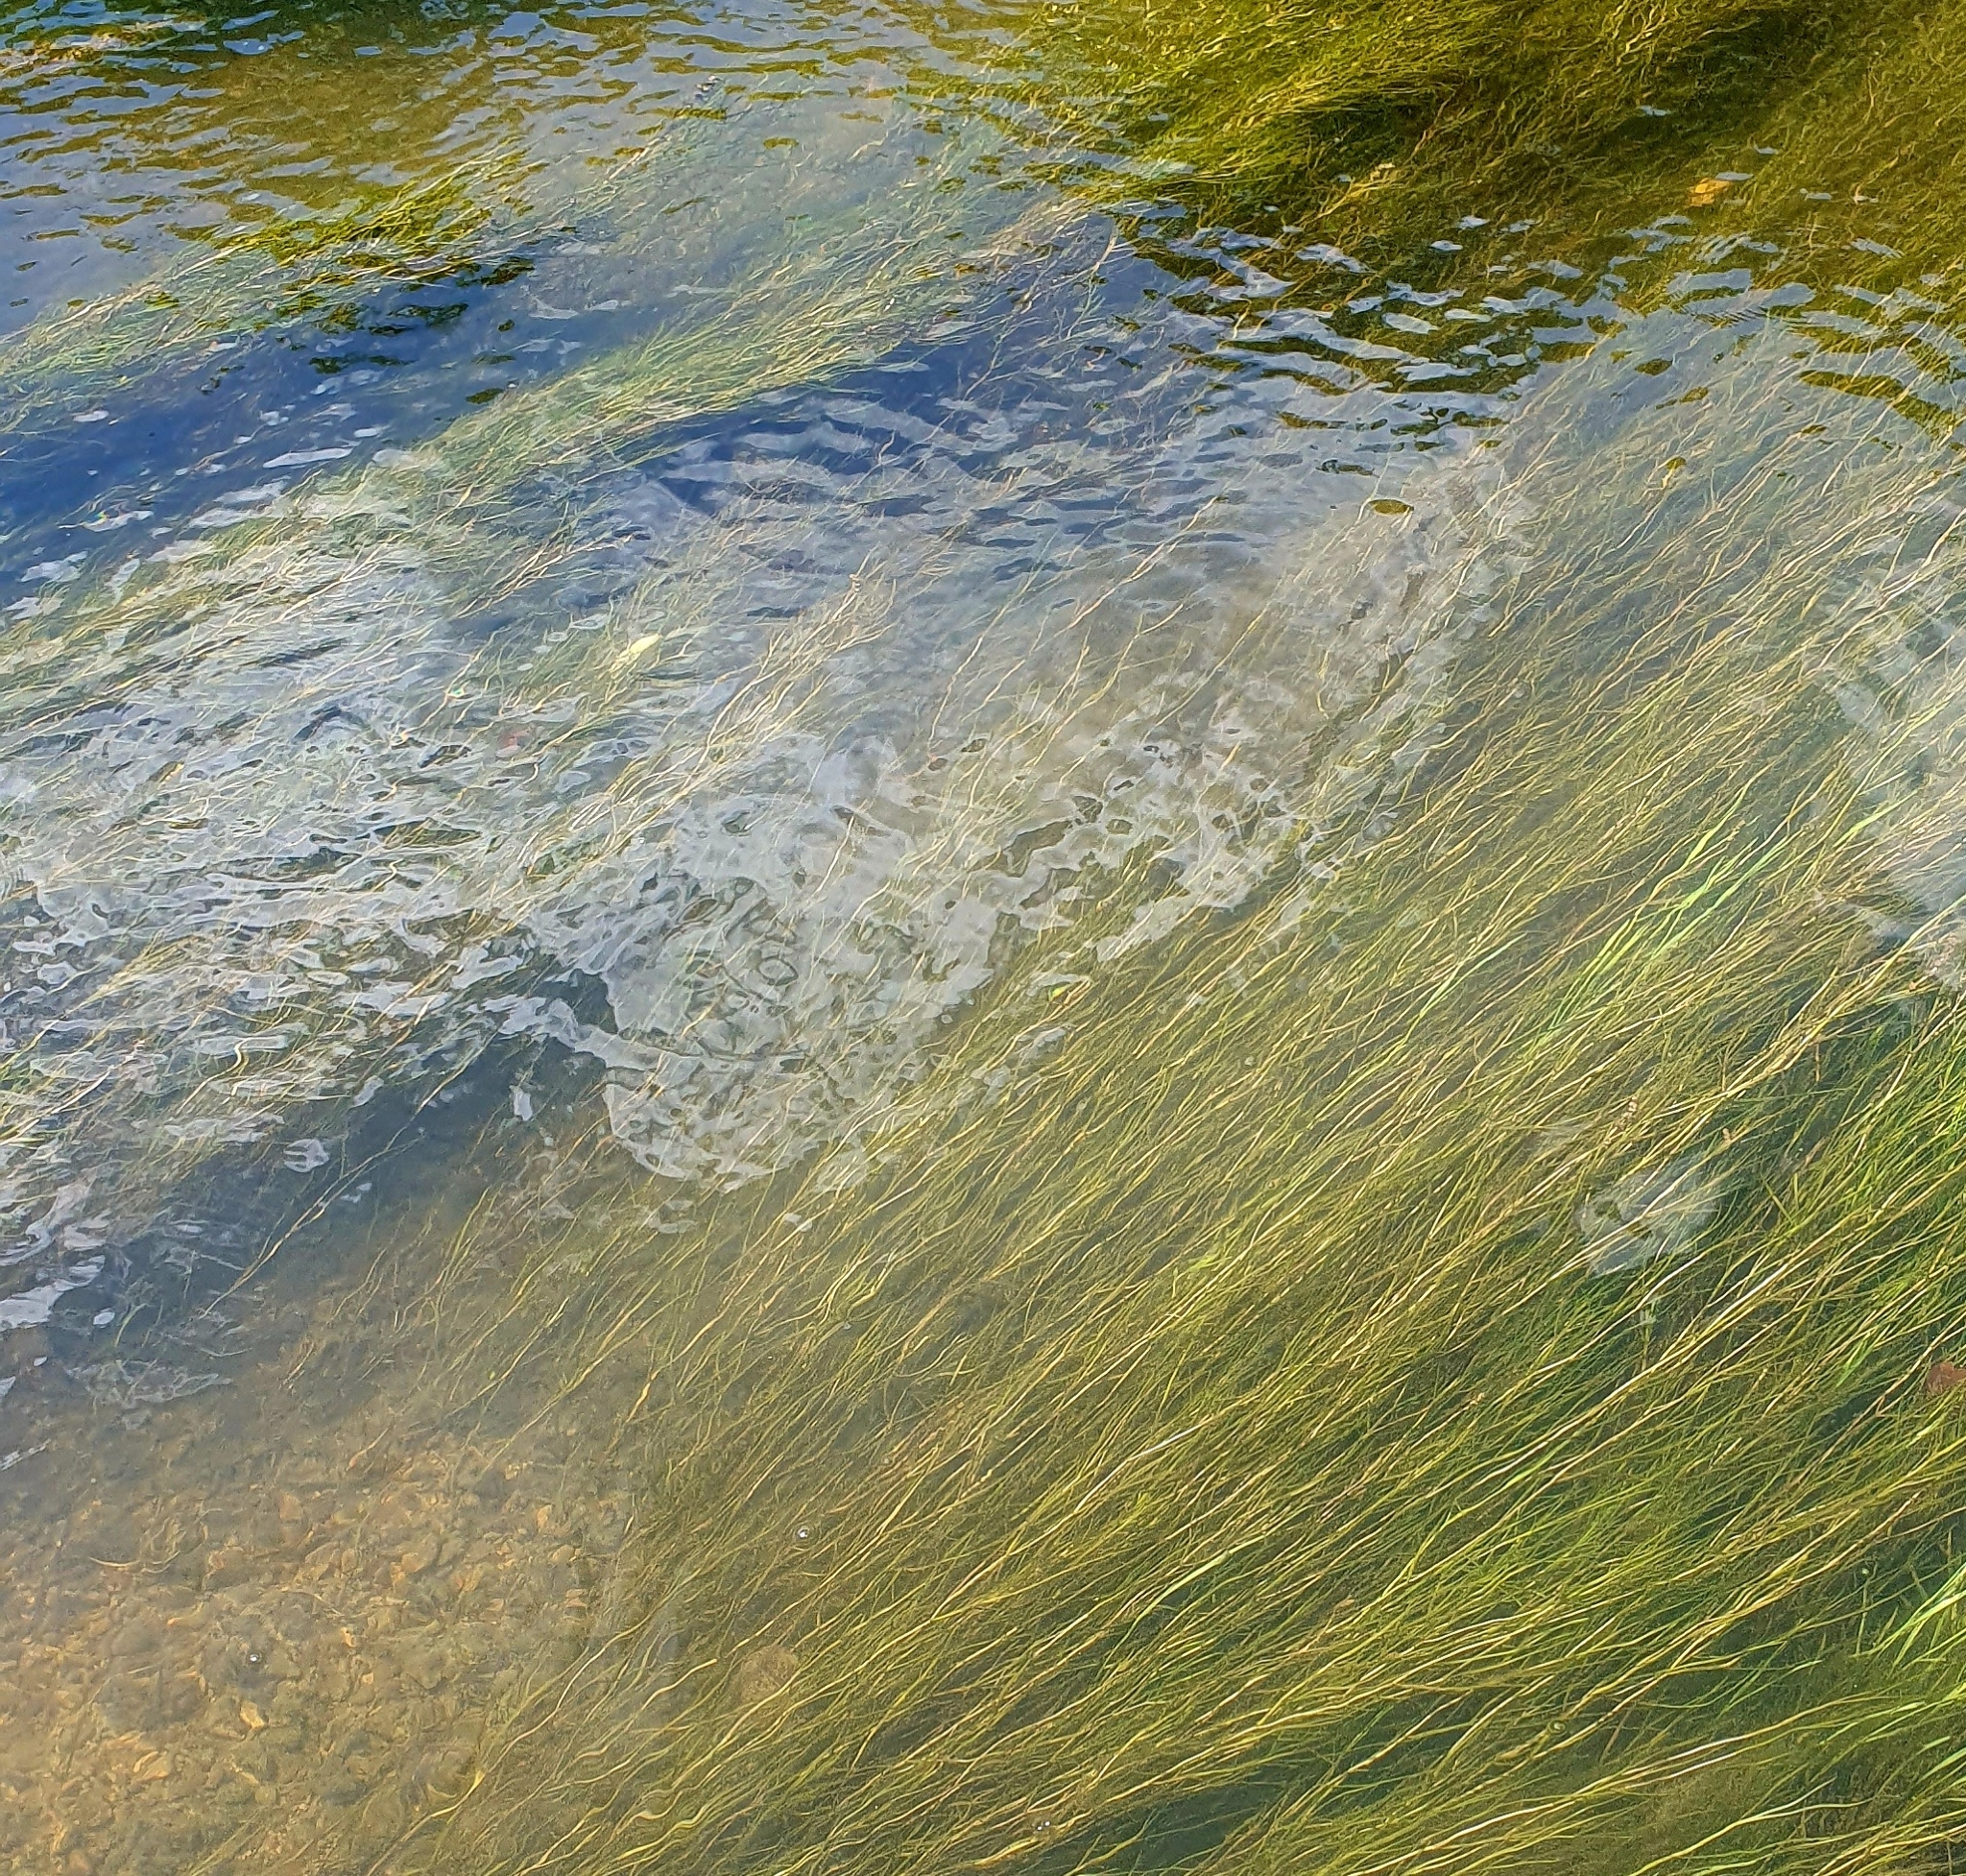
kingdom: Plantae
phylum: Tracheophyta
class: Liliopsida
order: Alismatales
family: Potamogetonaceae
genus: Stuckenia
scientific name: Stuckenia pectinata
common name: Sago pondweed
